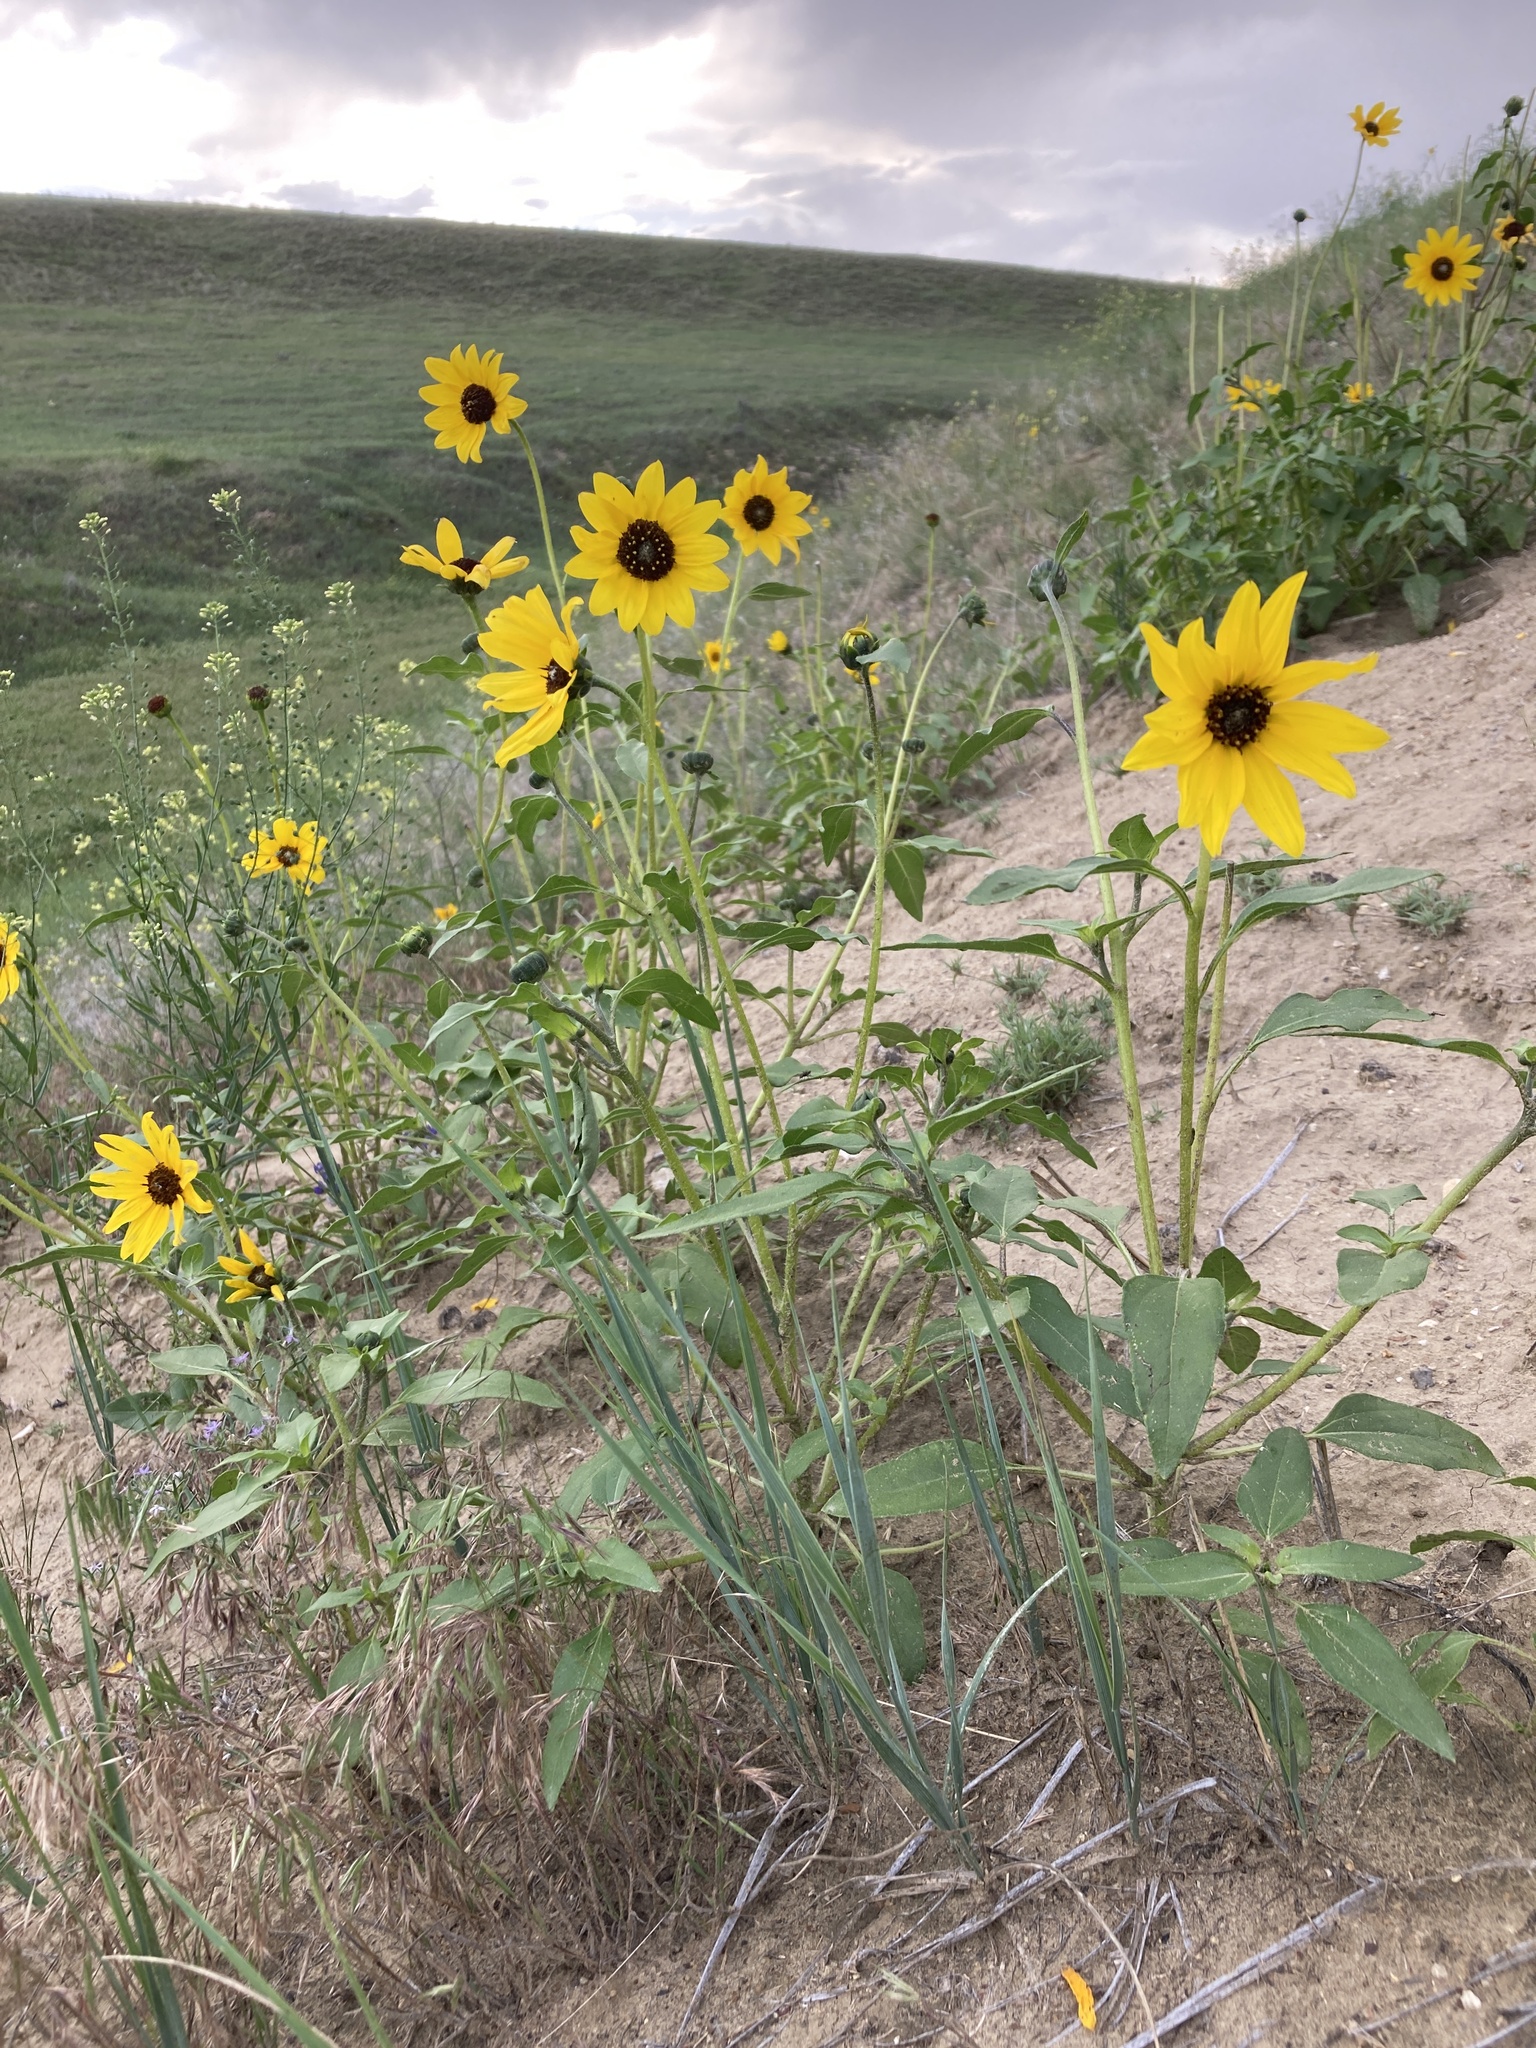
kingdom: Plantae
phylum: Tracheophyta
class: Magnoliopsida
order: Asterales
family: Asteraceae
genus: Helianthus
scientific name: Helianthus petiolaris
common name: Lesser sunflower
